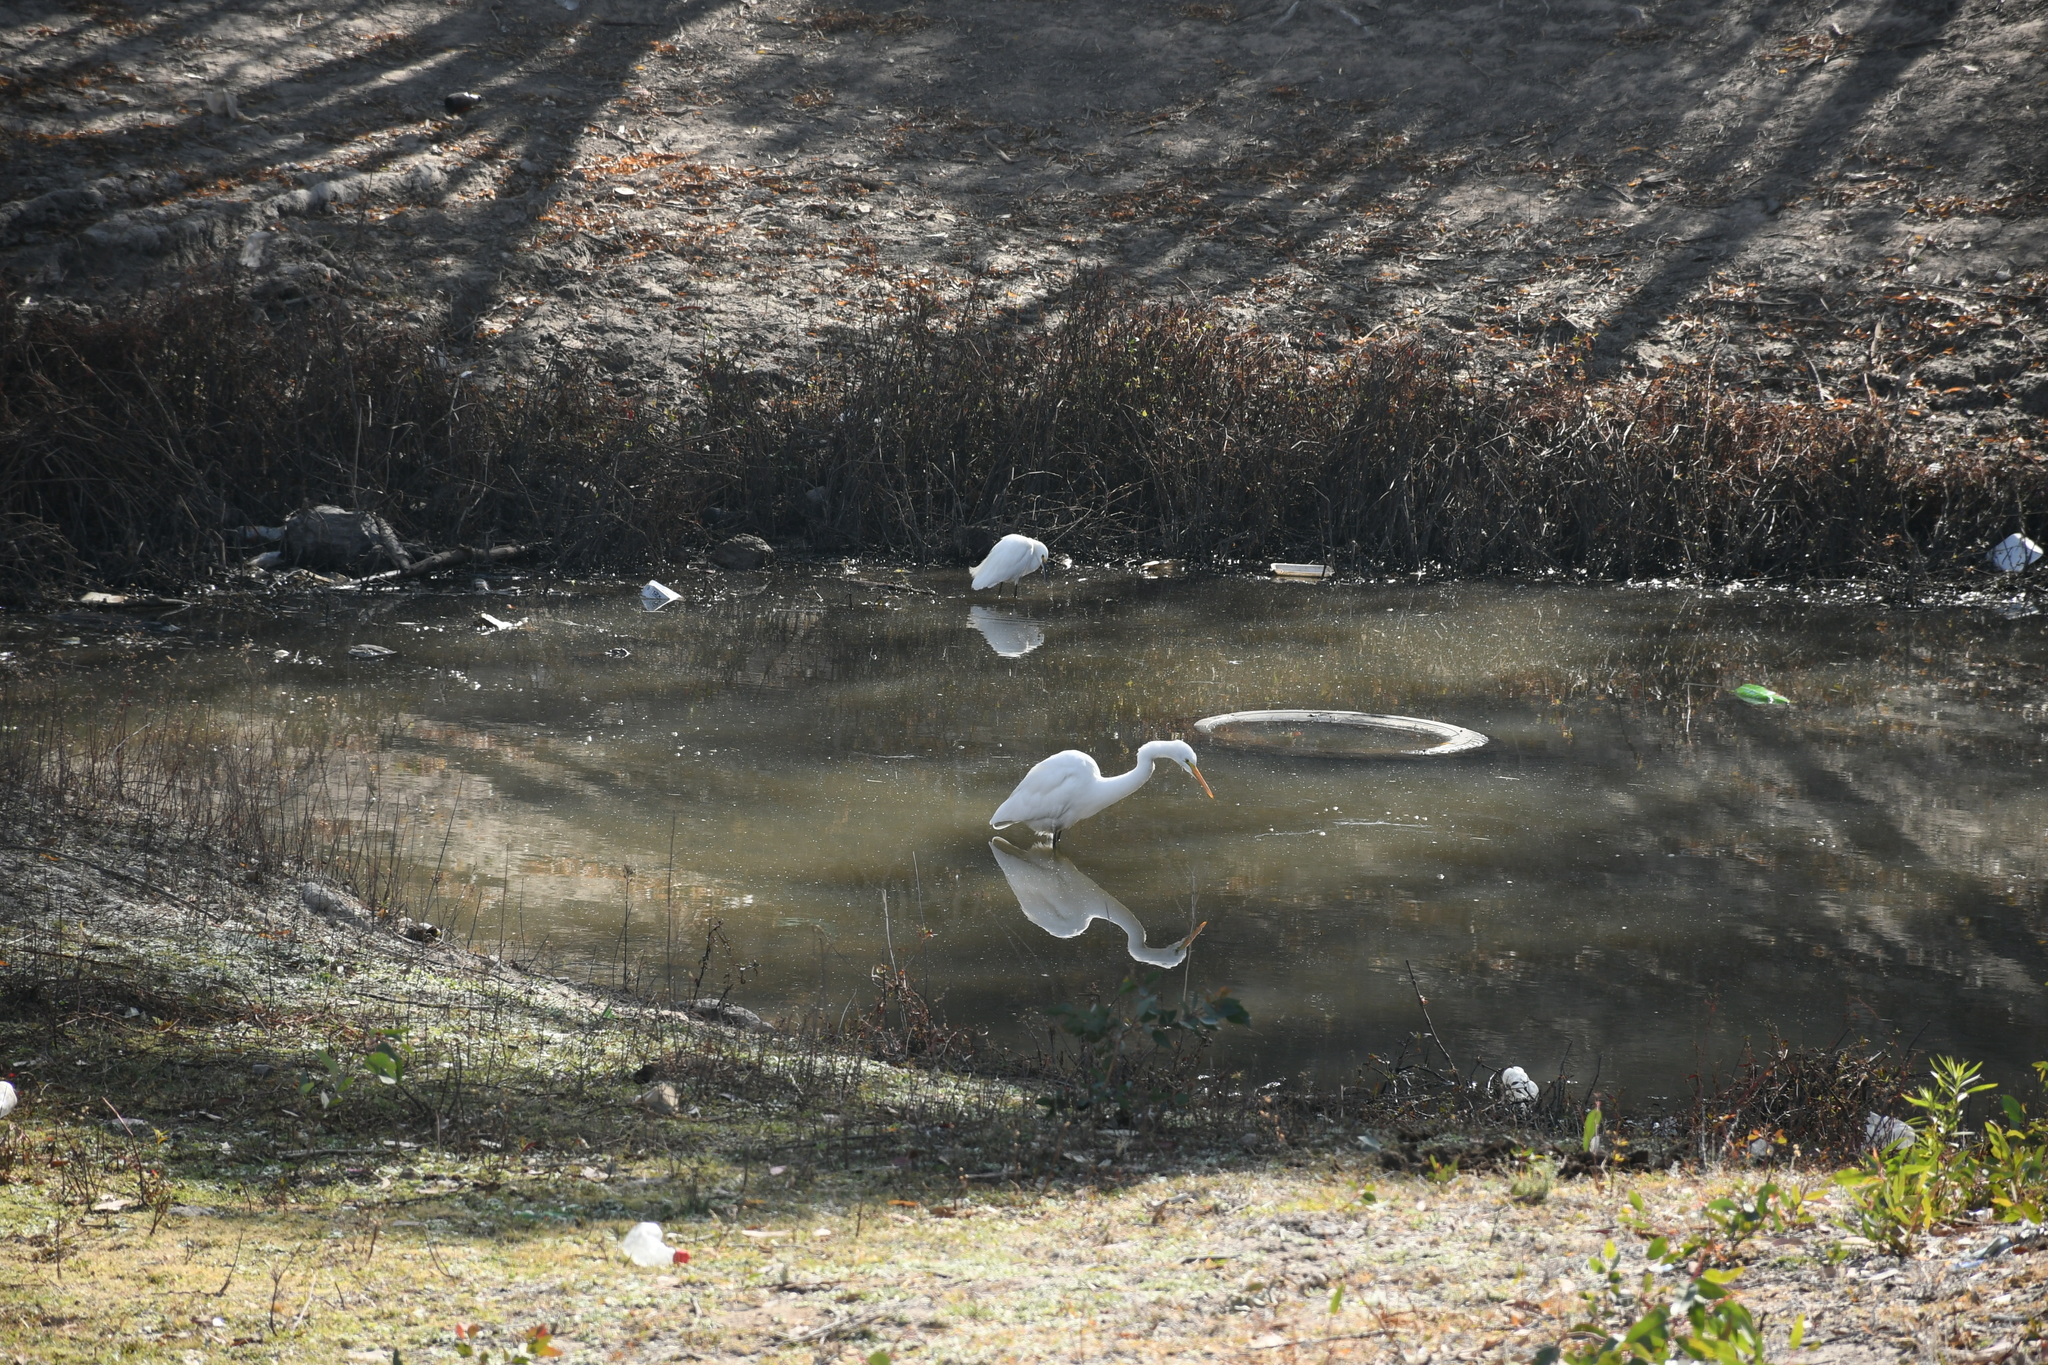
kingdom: Animalia
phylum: Chordata
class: Aves
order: Pelecaniformes
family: Ardeidae
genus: Egretta
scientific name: Egretta thula
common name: Snowy egret
